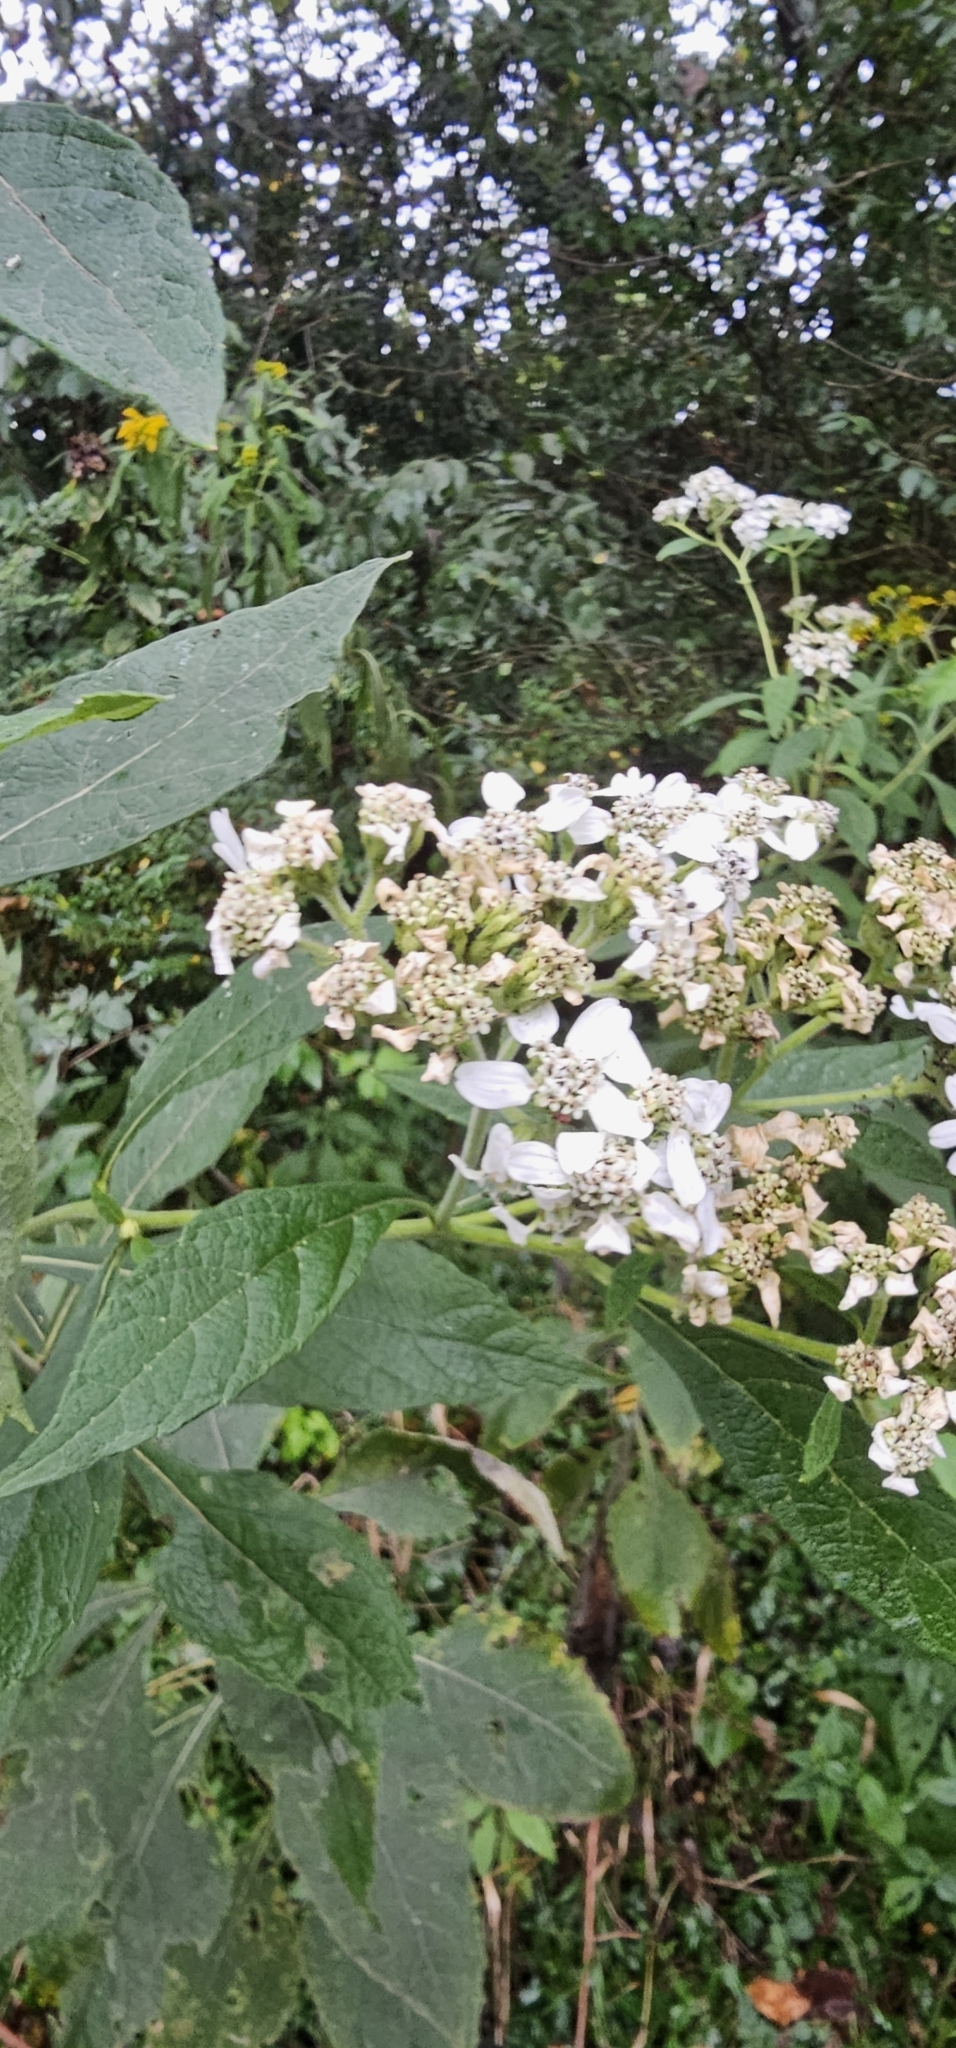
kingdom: Plantae
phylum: Tracheophyta
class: Magnoliopsida
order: Asterales
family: Asteraceae
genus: Verbesina
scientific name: Verbesina virginica
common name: Frostweed
